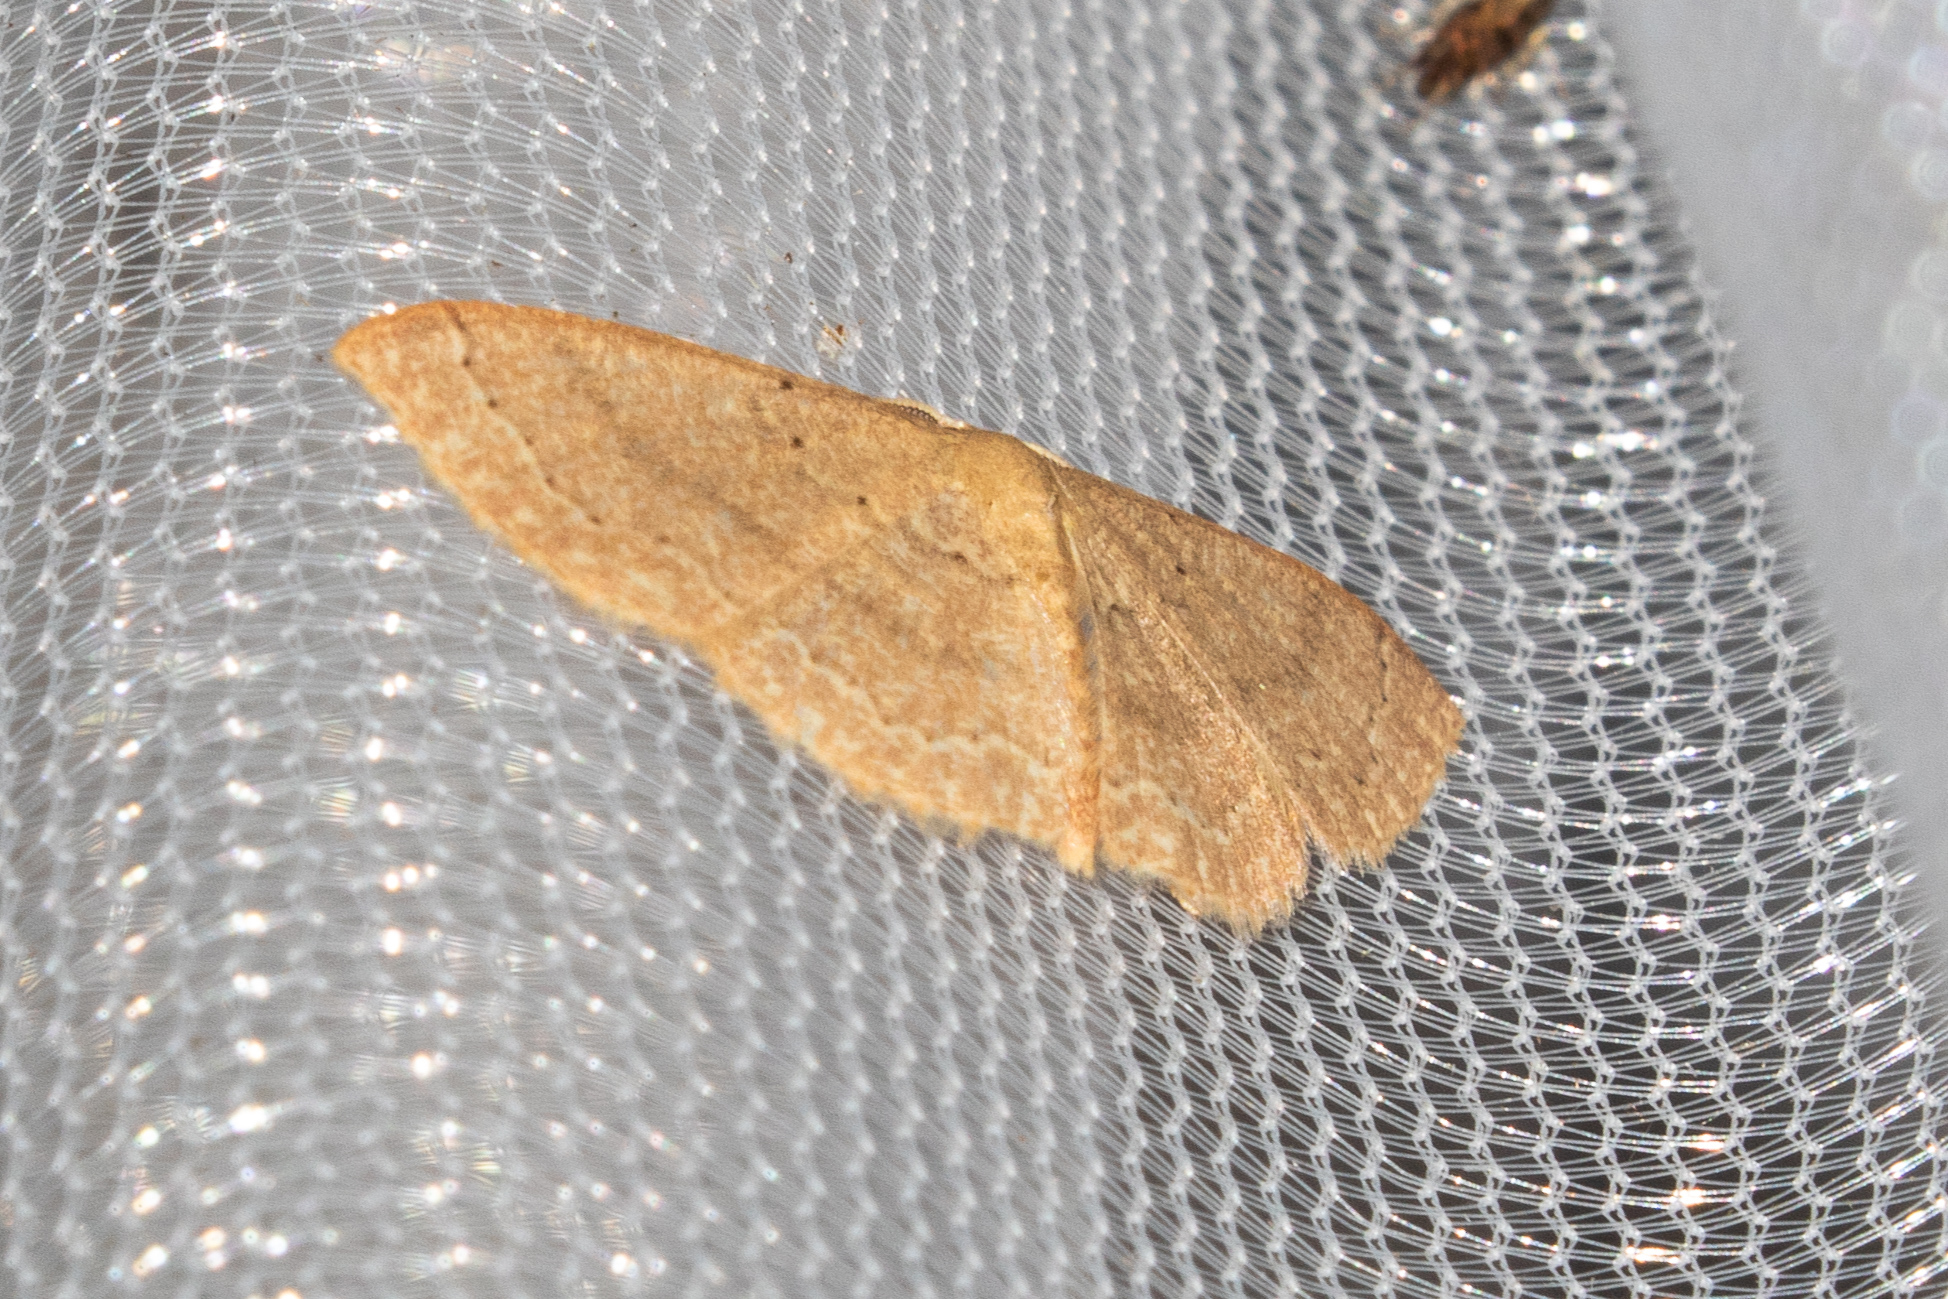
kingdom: Animalia
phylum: Arthropoda
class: Insecta
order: Lepidoptera
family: Geometridae
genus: Pleuroprucha
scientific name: Pleuroprucha insulsaria
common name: Common tan wave
